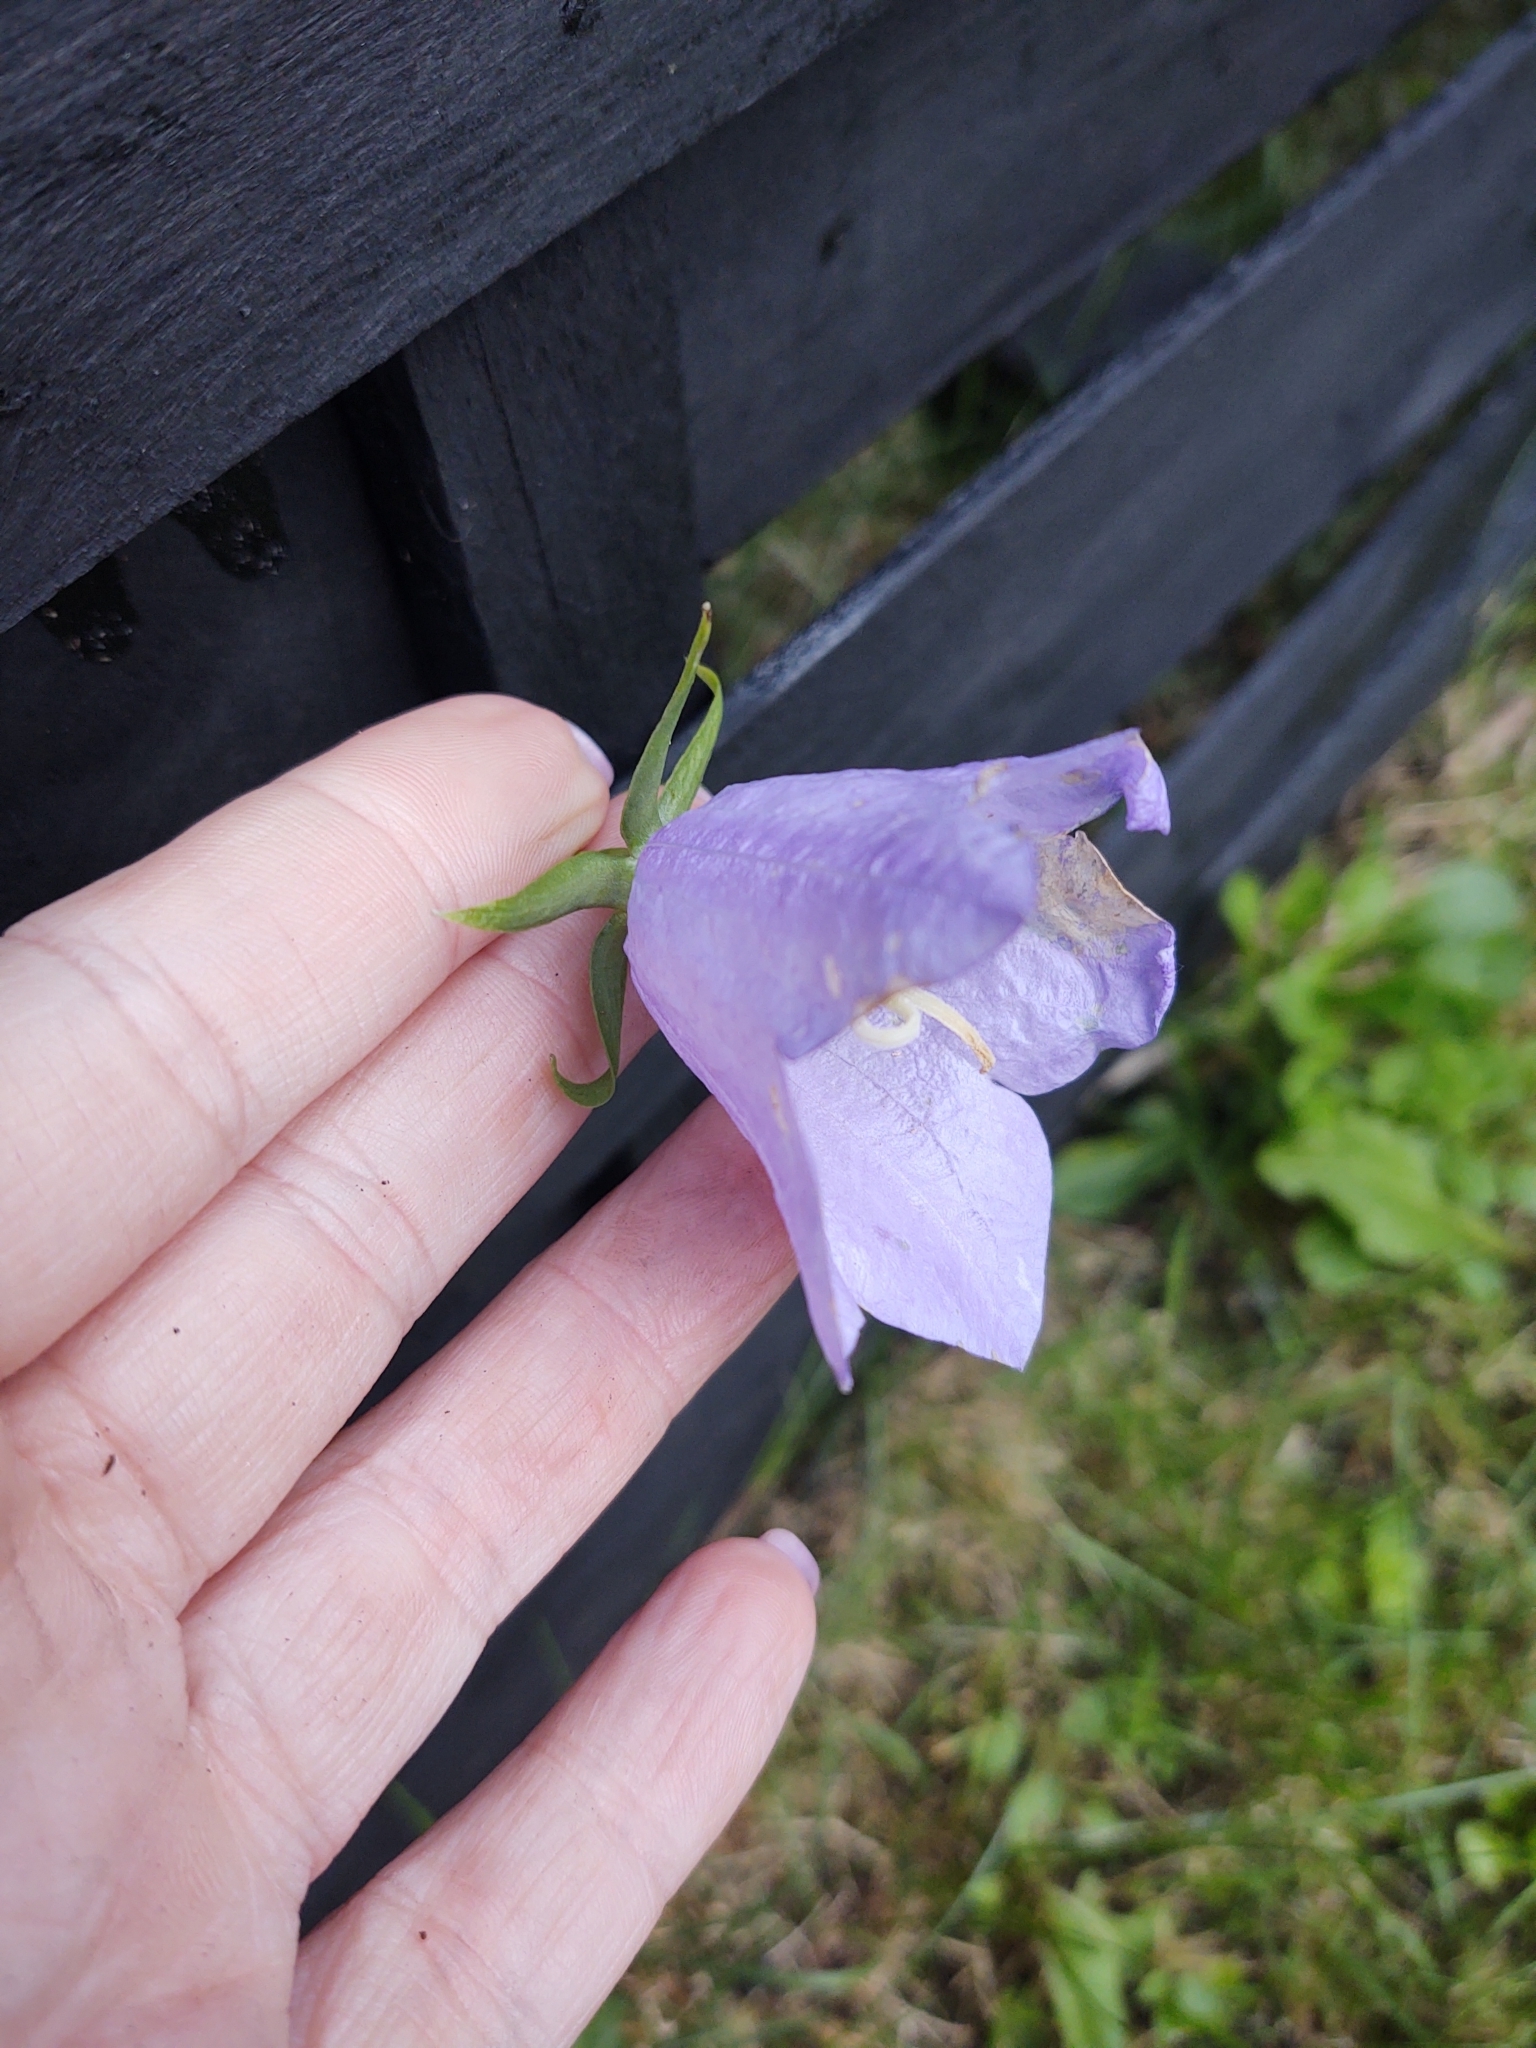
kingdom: Plantae
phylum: Tracheophyta
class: Magnoliopsida
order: Asterales
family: Campanulaceae
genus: Campanula
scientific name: Campanula persicifolia
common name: Peach-leaved bellflower
